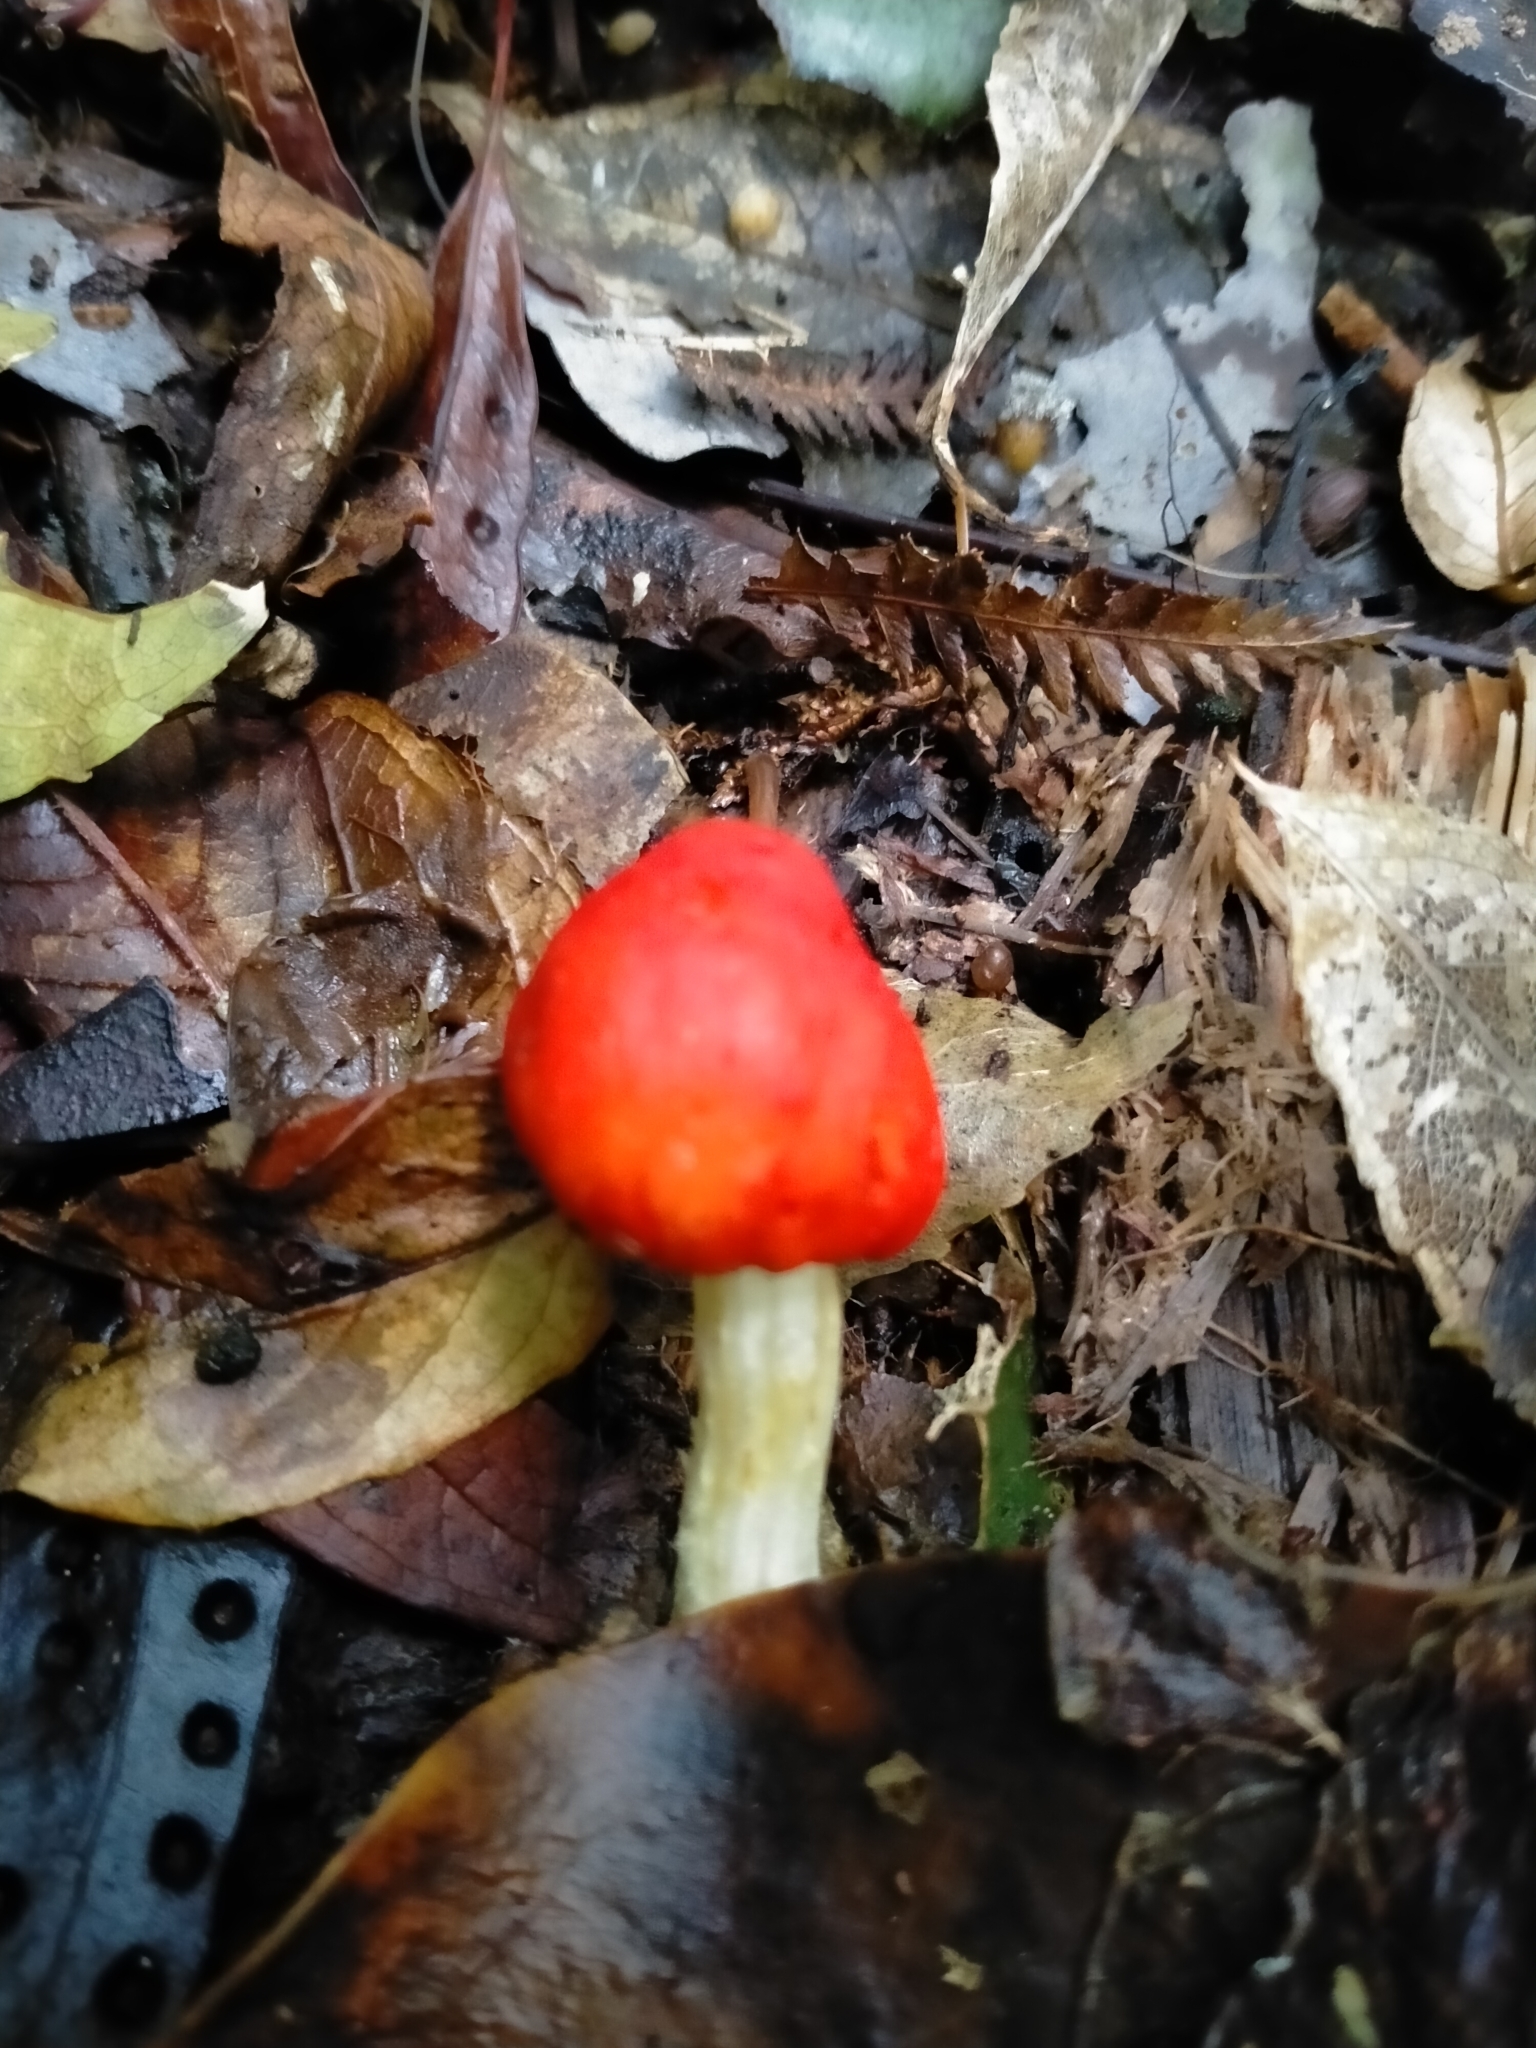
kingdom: Fungi
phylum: Basidiomycota
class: Agaricomycetes
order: Agaricales
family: Strophariaceae
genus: Leratiomyces
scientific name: Leratiomyces erythrocephalus
